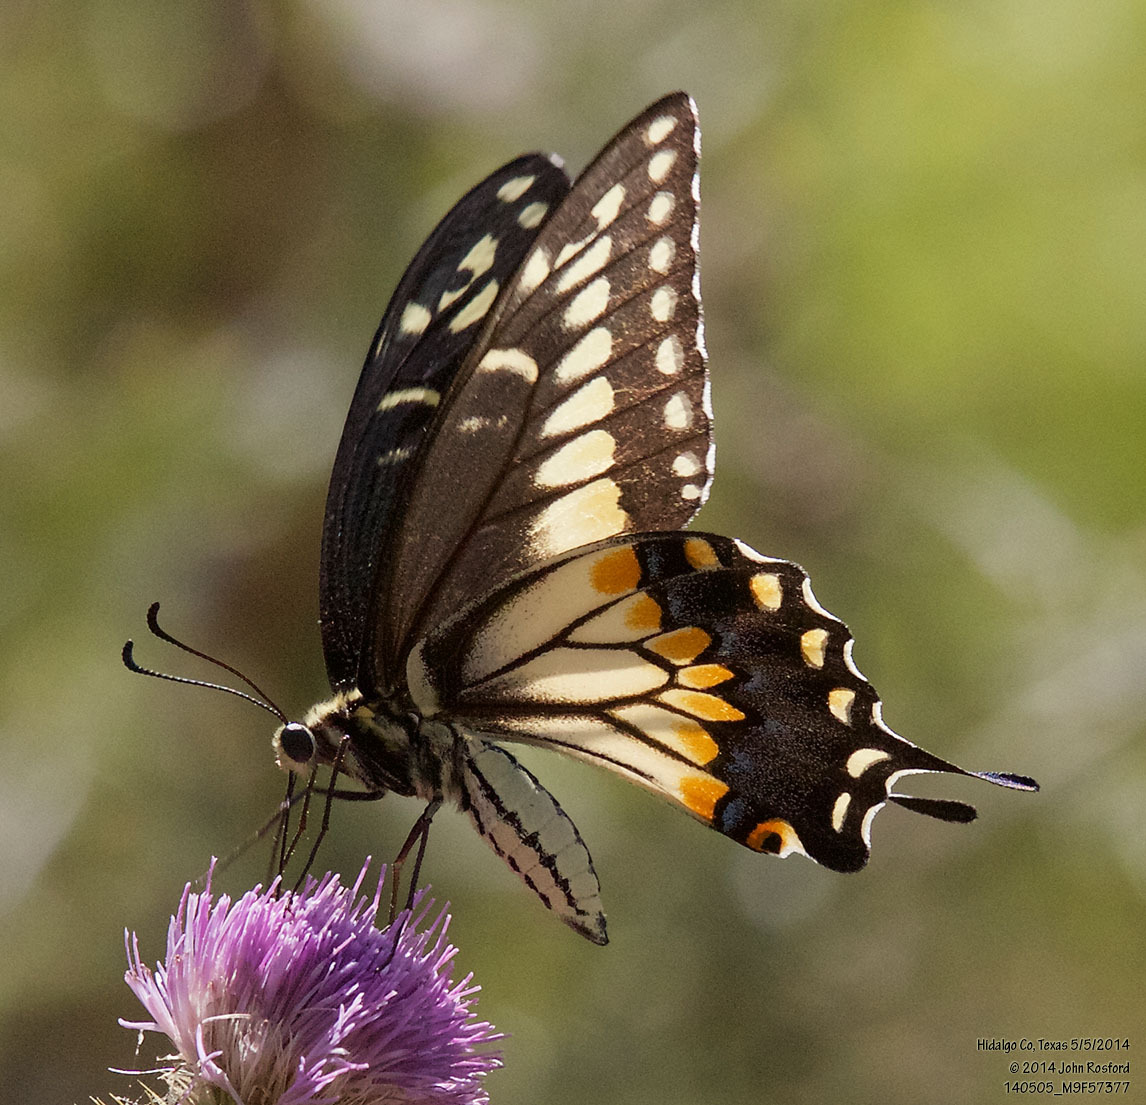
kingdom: Animalia
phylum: Arthropoda
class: Insecta
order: Lepidoptera
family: Papilionidae
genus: Papilio
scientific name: Papilio polyxenes
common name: Black swallowtail
